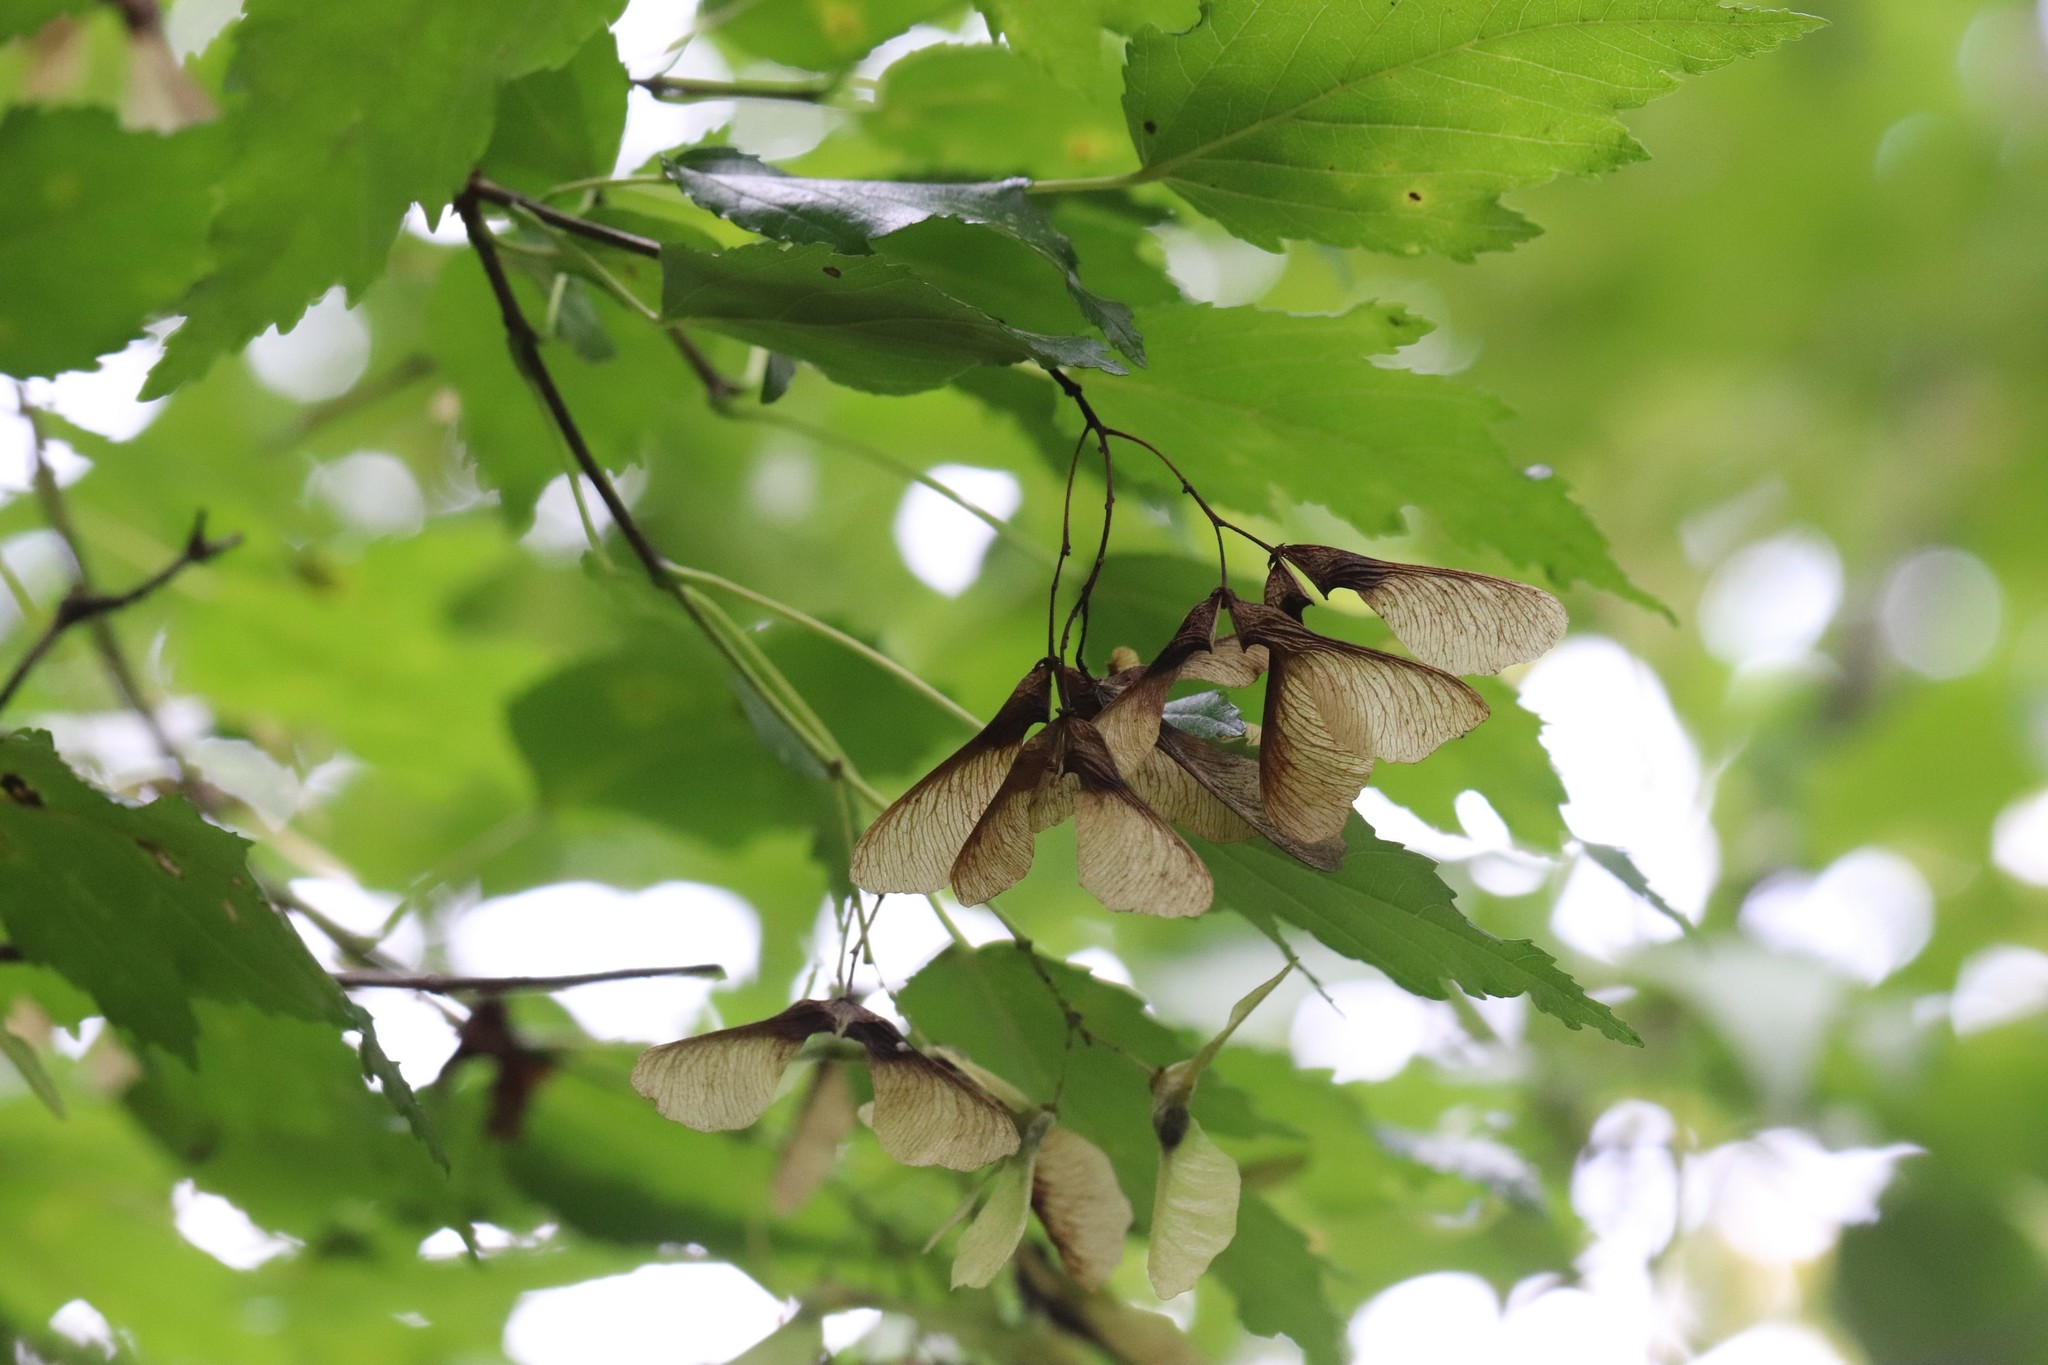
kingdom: Plantae
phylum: Tracheophyta
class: Magnoliopsida
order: Sapindales
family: Sapindaceae
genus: Acer
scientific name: Acer tataricum
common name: Tartar maple
